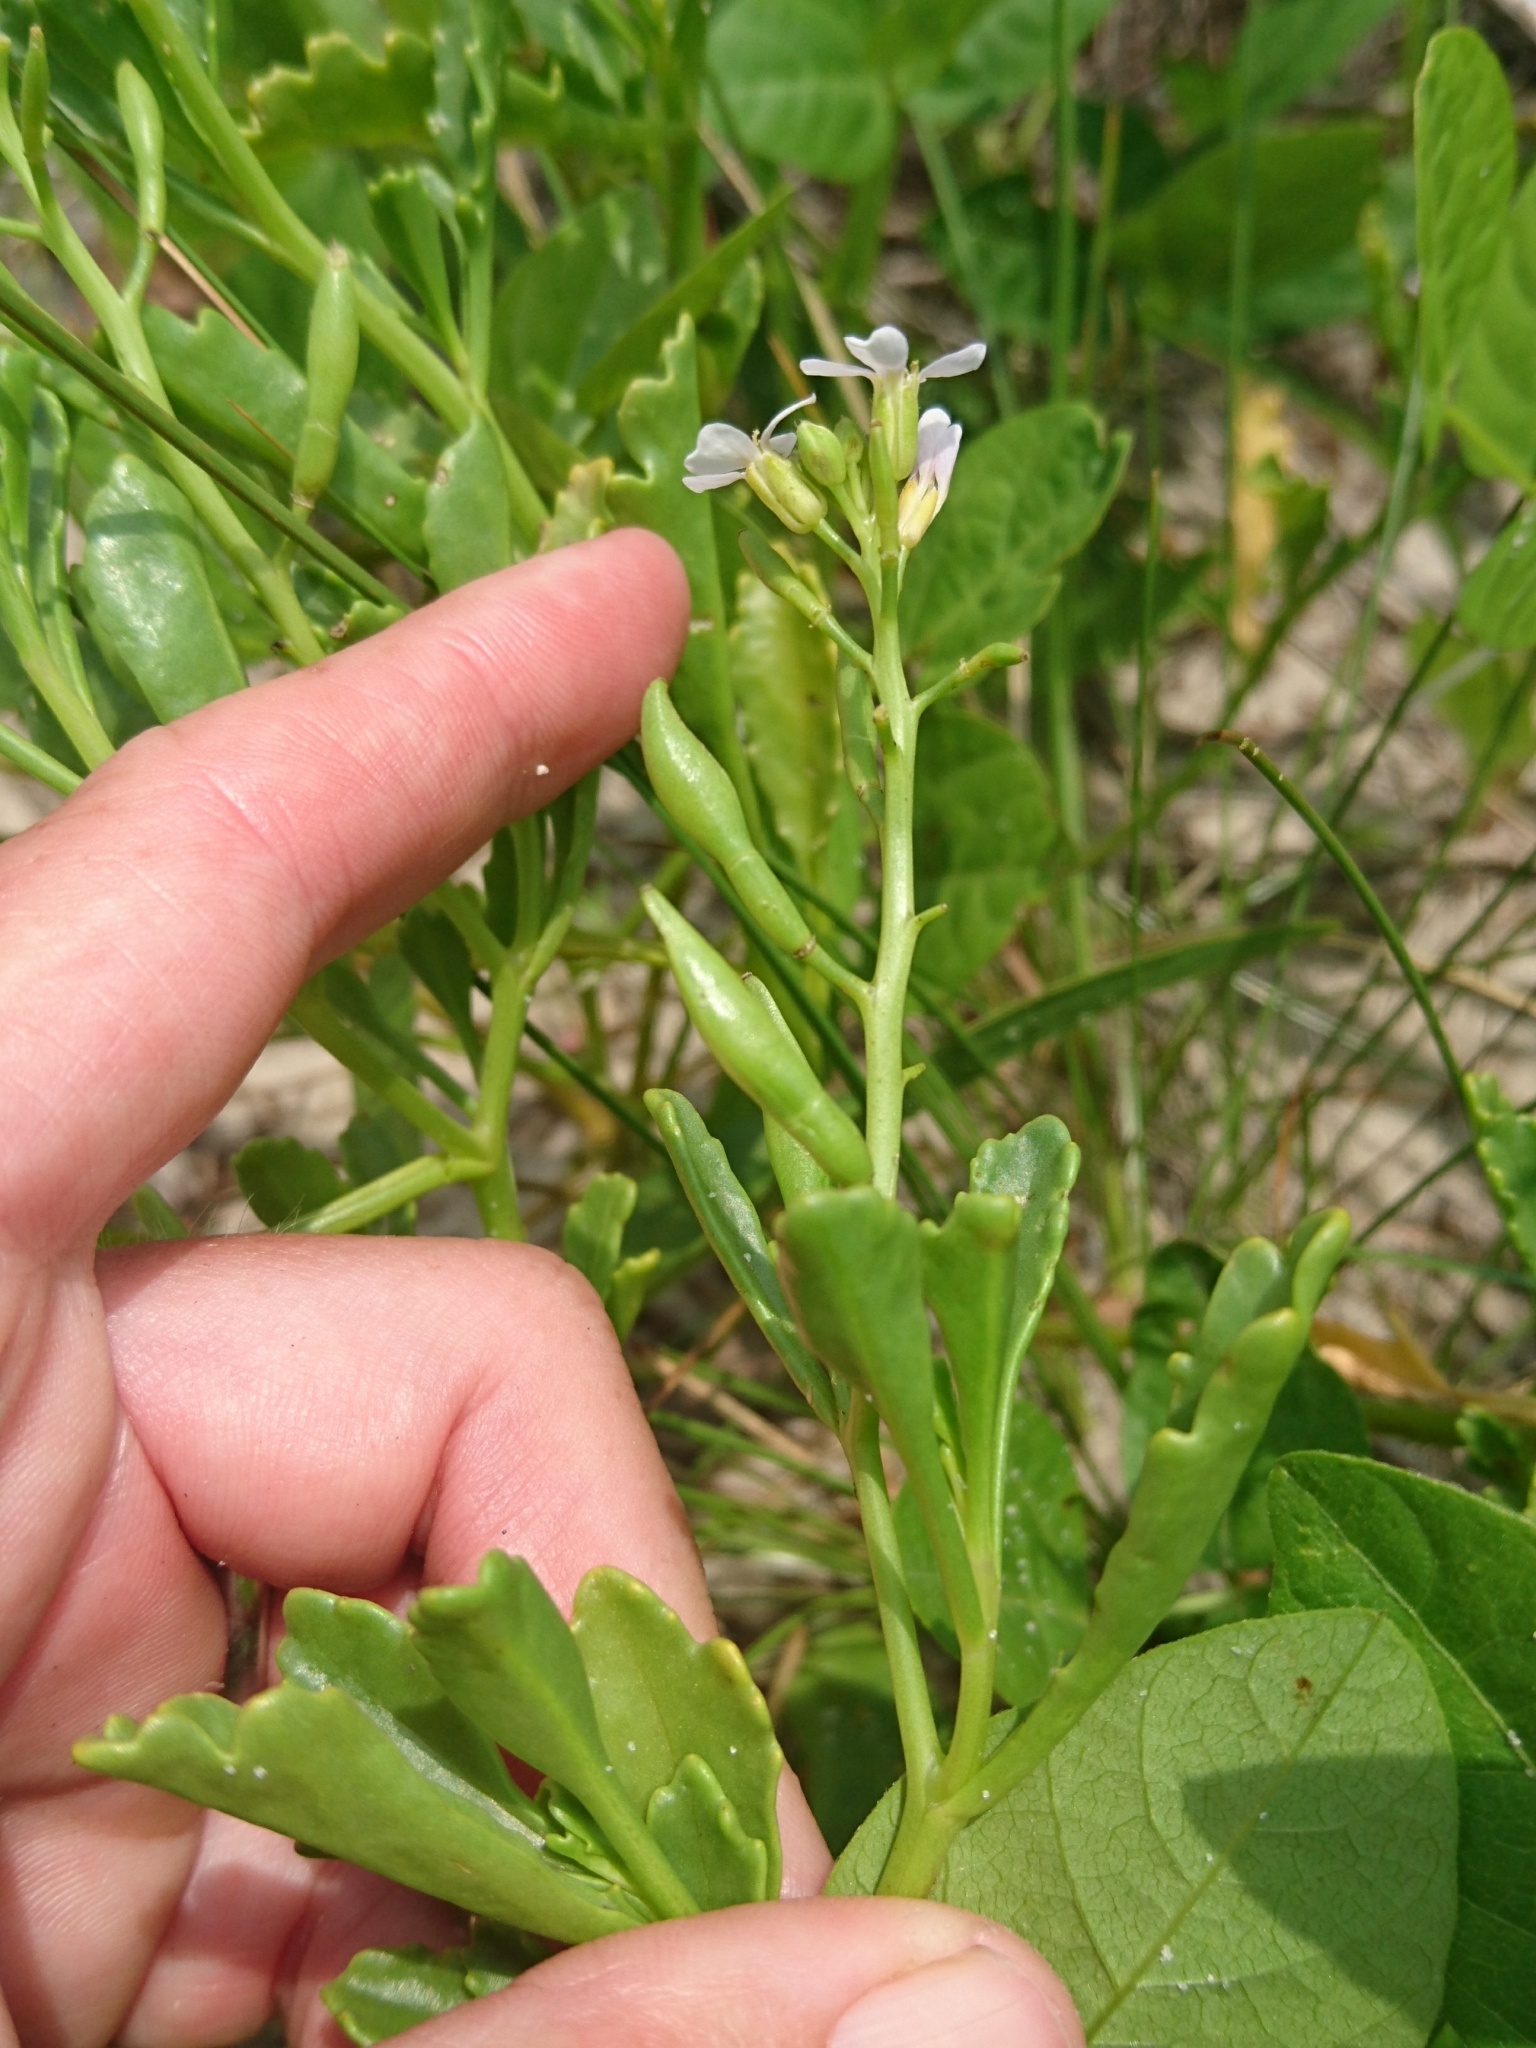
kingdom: Plantae
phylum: Tracheophyta
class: Magnoliopsida
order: Brassicales
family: Brassicaceae
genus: Cakile
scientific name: Cakile constricta
